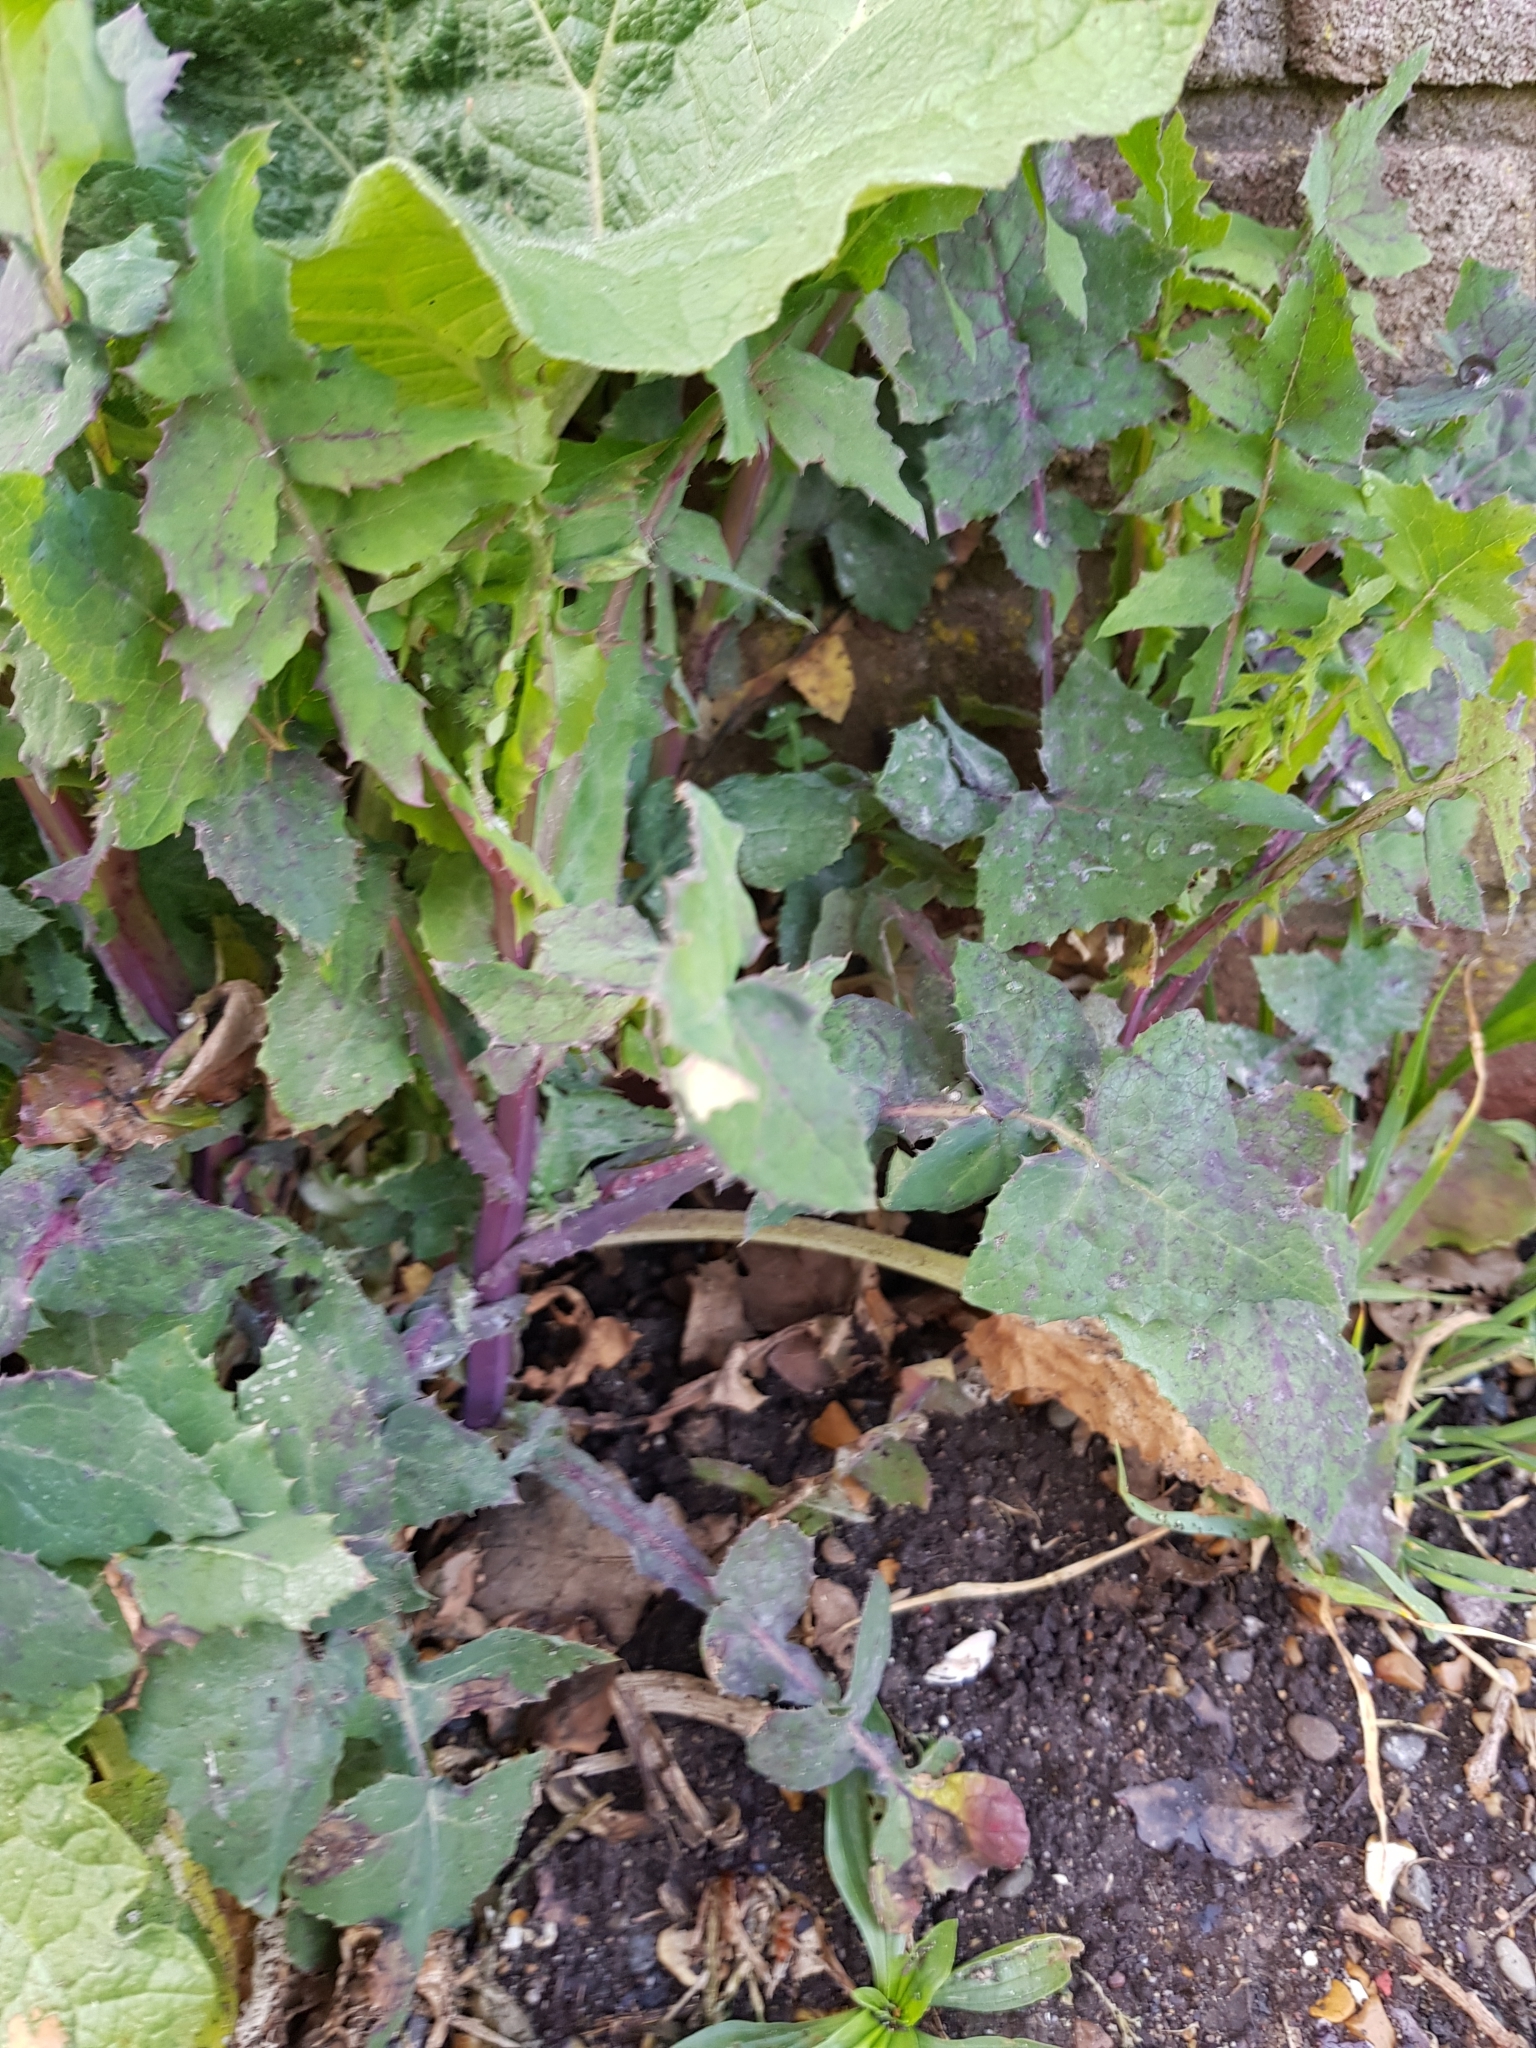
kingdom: Plantae
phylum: Tracheophyta
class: Magnoliopsida
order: Asterales
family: Asteraceae
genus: Sonchus
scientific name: Sonchus oleraceus
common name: Common sowthistle
